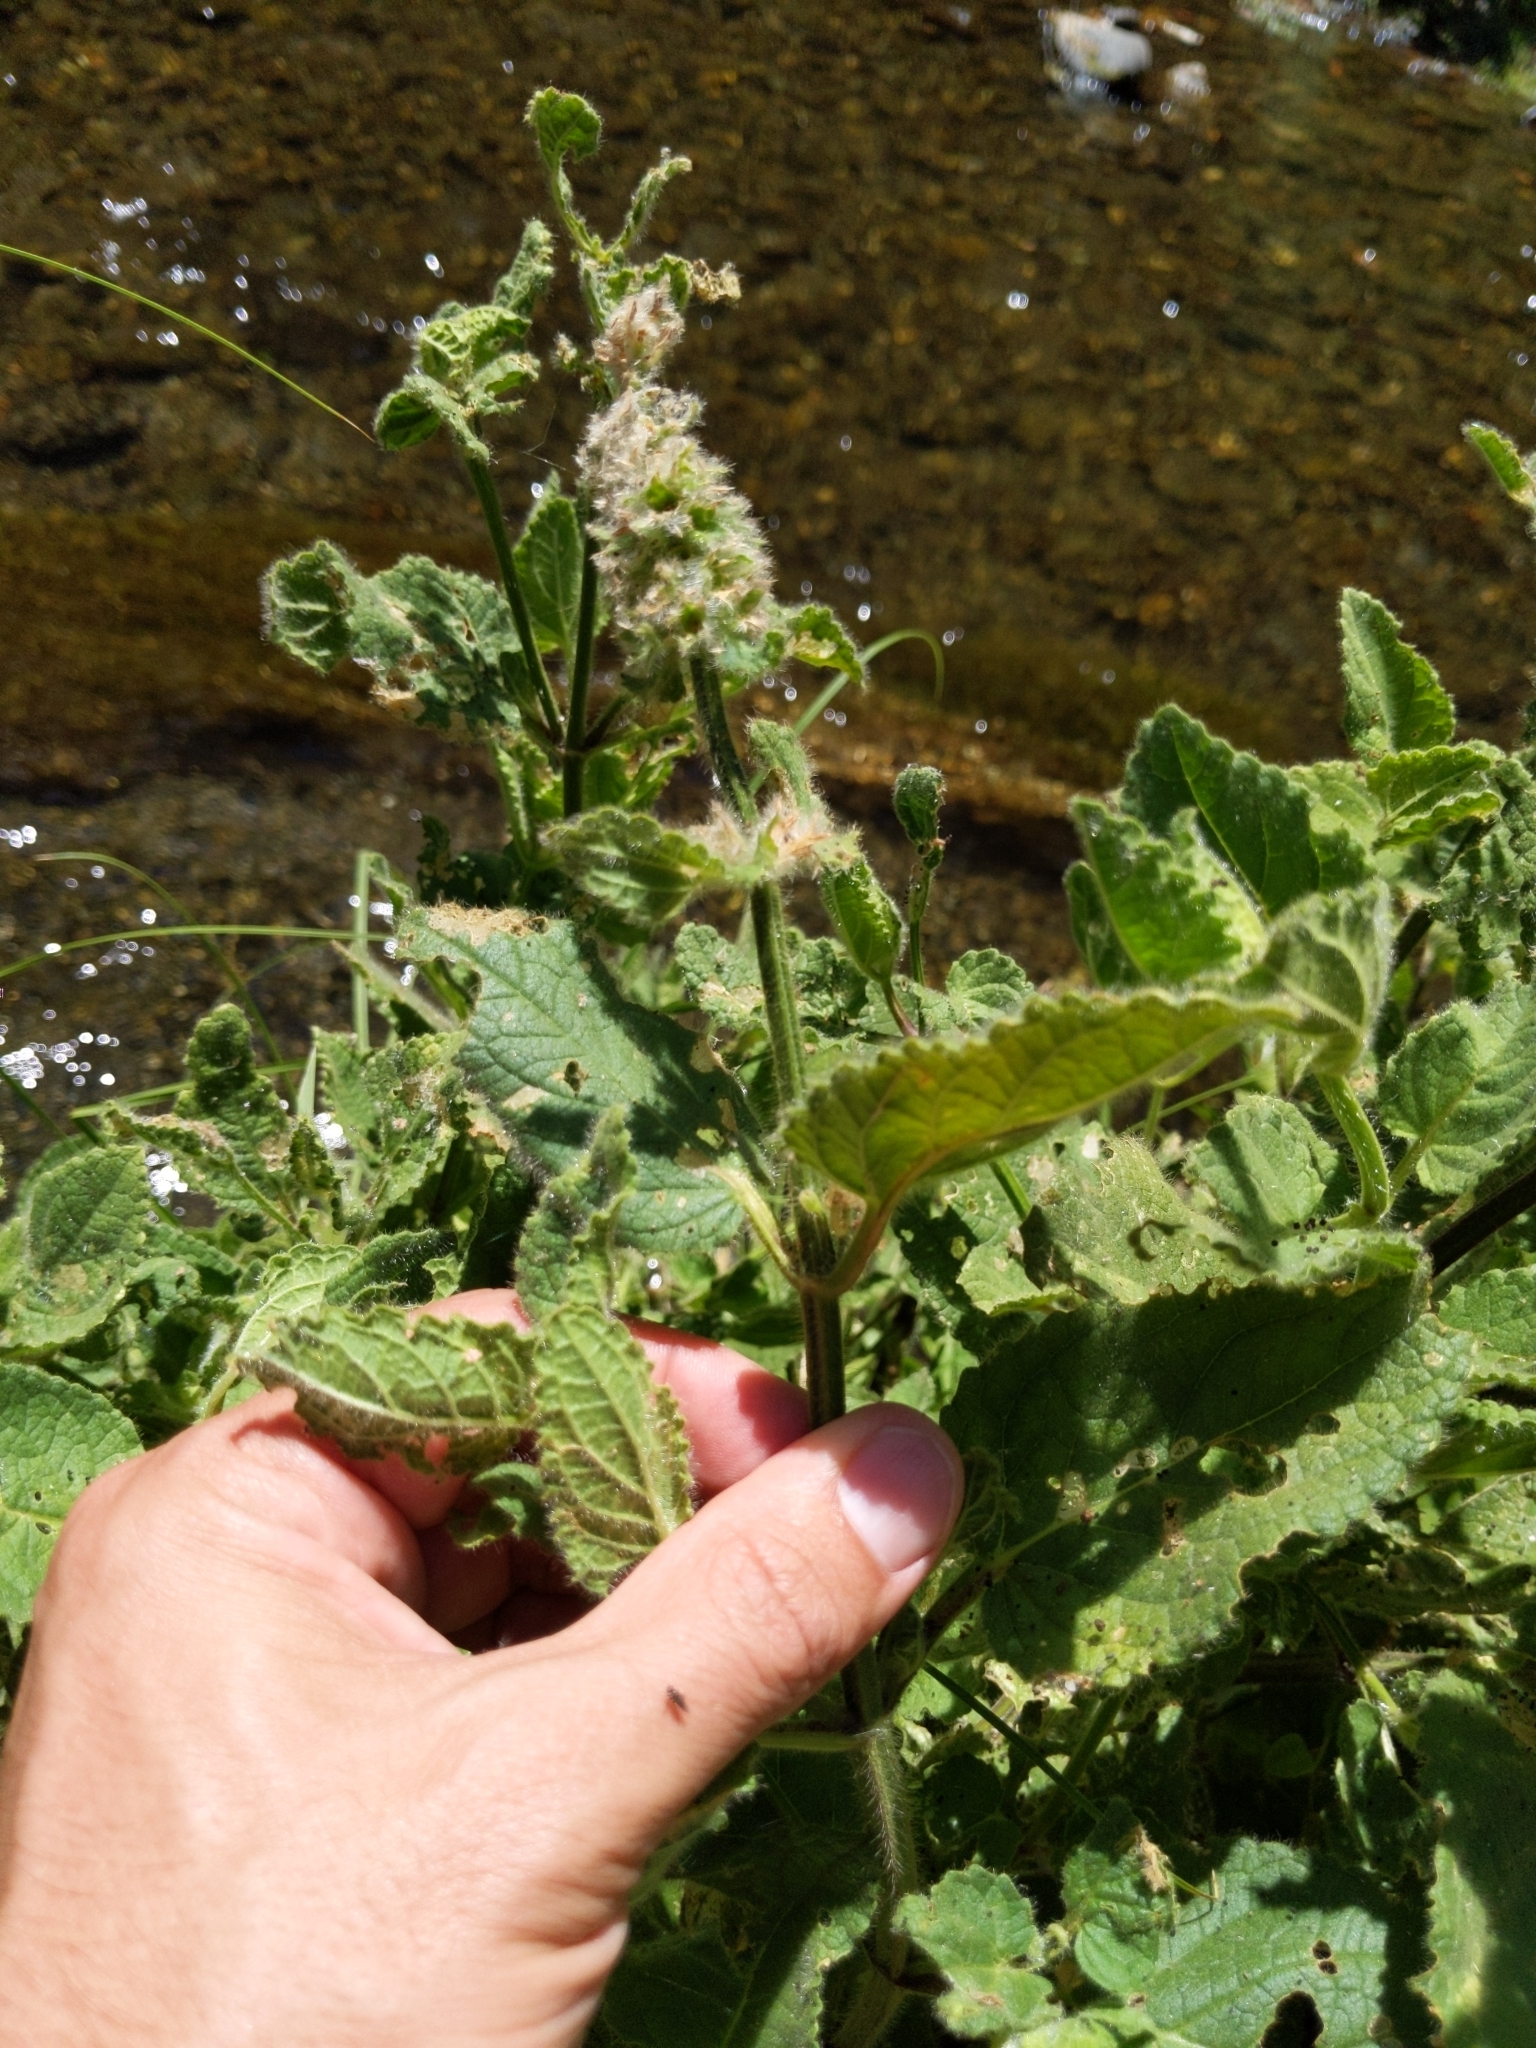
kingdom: Plantae
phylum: Tracheophyta
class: Magnoliopsida
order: Lamiales
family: Lamiaceae
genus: Stachys
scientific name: Stachys pycnantha
